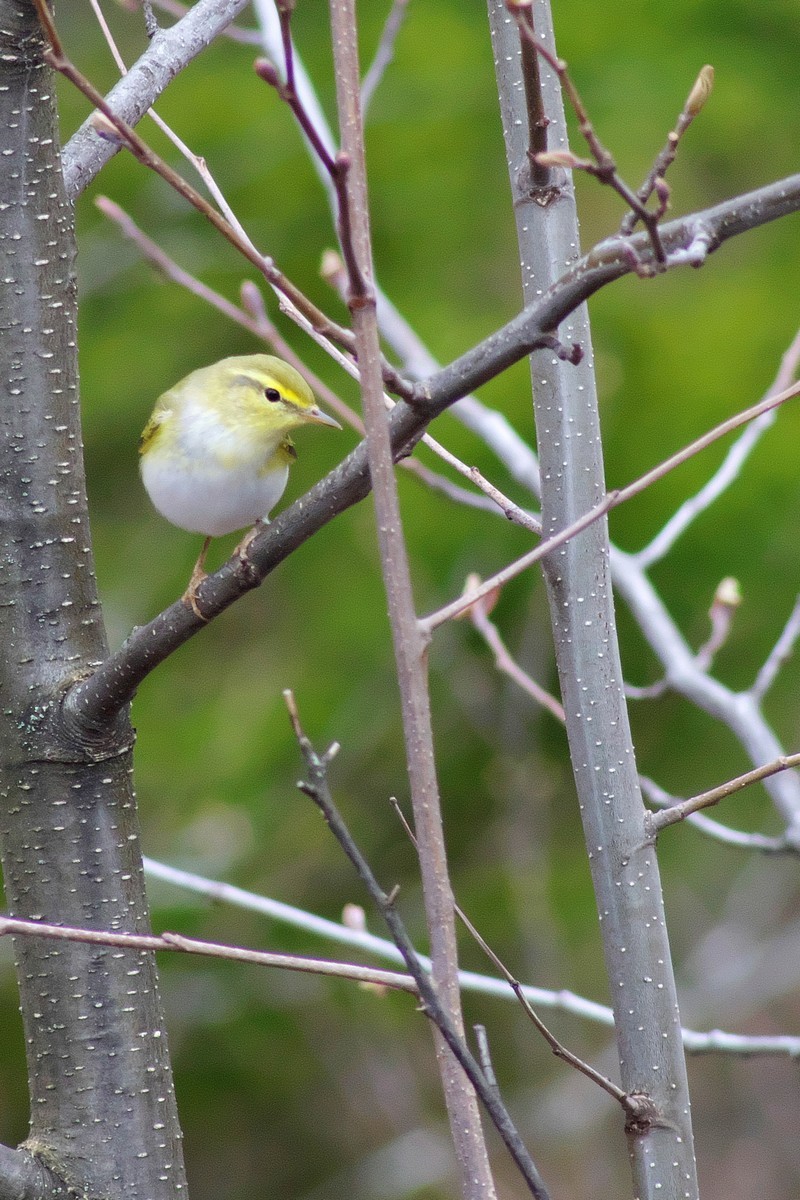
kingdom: Animalia
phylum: Chordata
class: Aves
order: Passeriformes
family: Phylloscopidae
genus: Phylloscopus
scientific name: Phylloscopus sibillatrix
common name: Wood warbler
